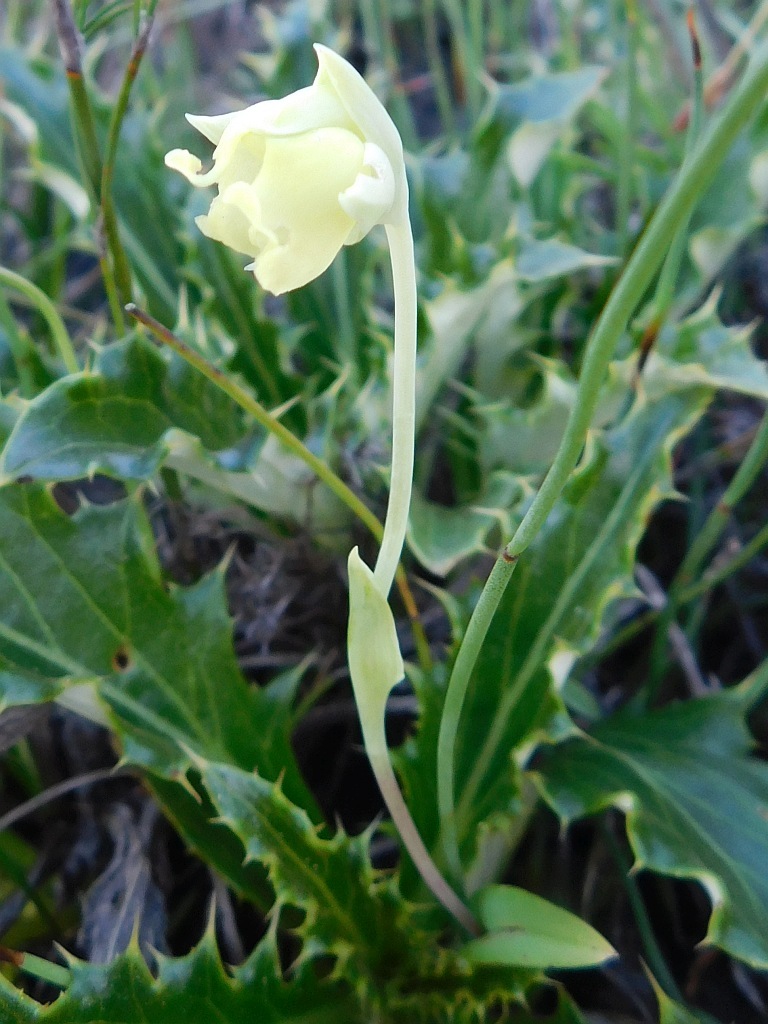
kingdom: Plantae
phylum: Tracheophyta
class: Liliopsida
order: Asparagales
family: Orchidaceae
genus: Pterygodium
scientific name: Pterygodium platypetalum
